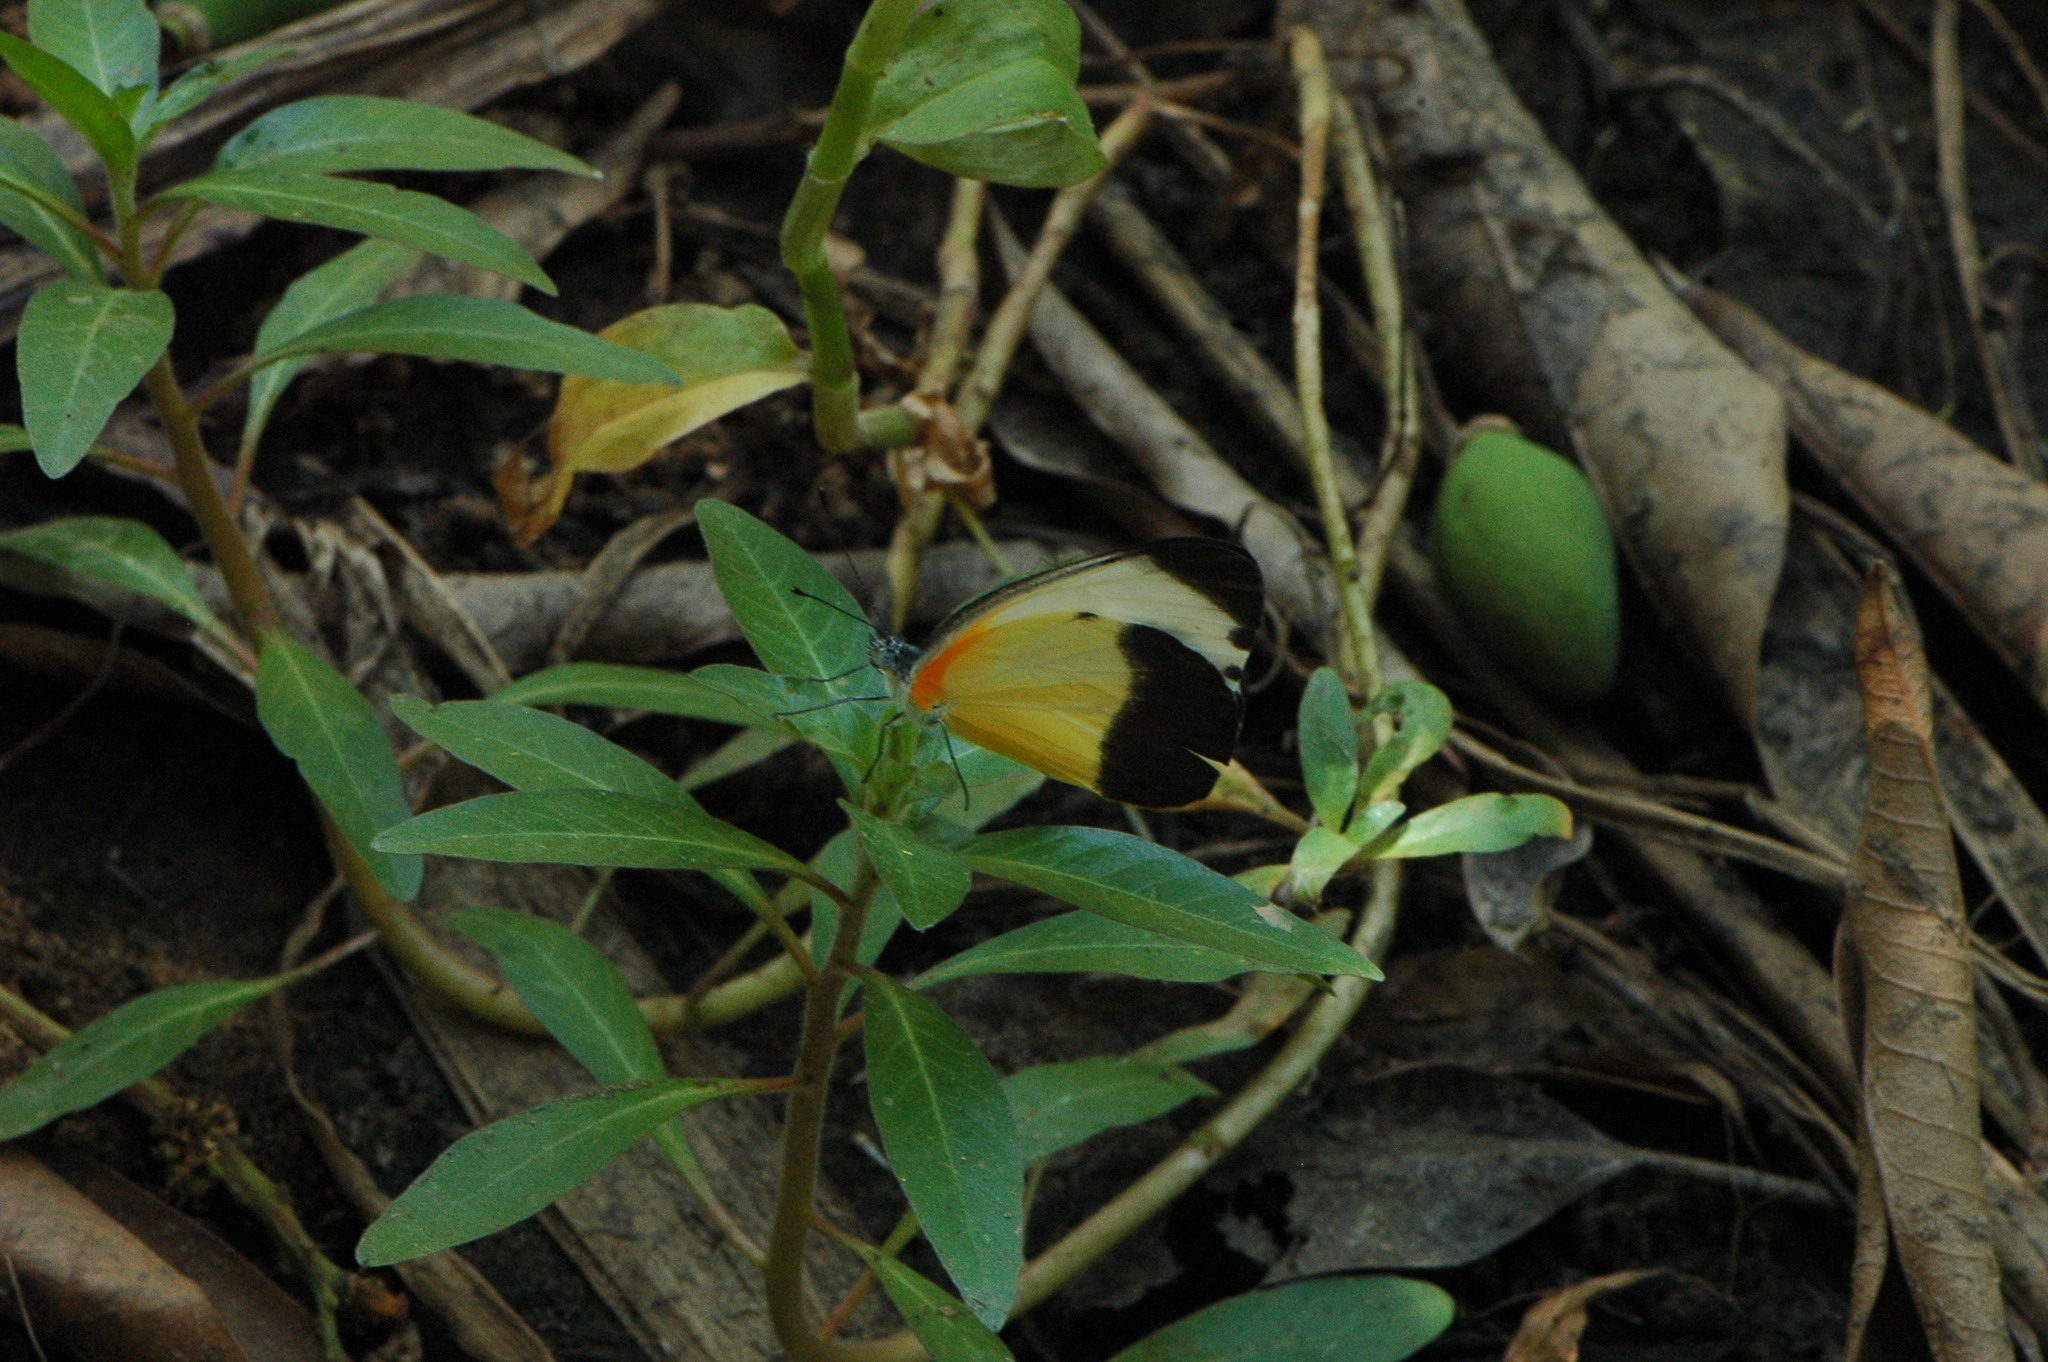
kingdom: Animalia
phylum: Arthropoda
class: Insecta
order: Lepidoptera
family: Pieridae
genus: Mylothris
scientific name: Mylothris chloris
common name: Western dotted border
